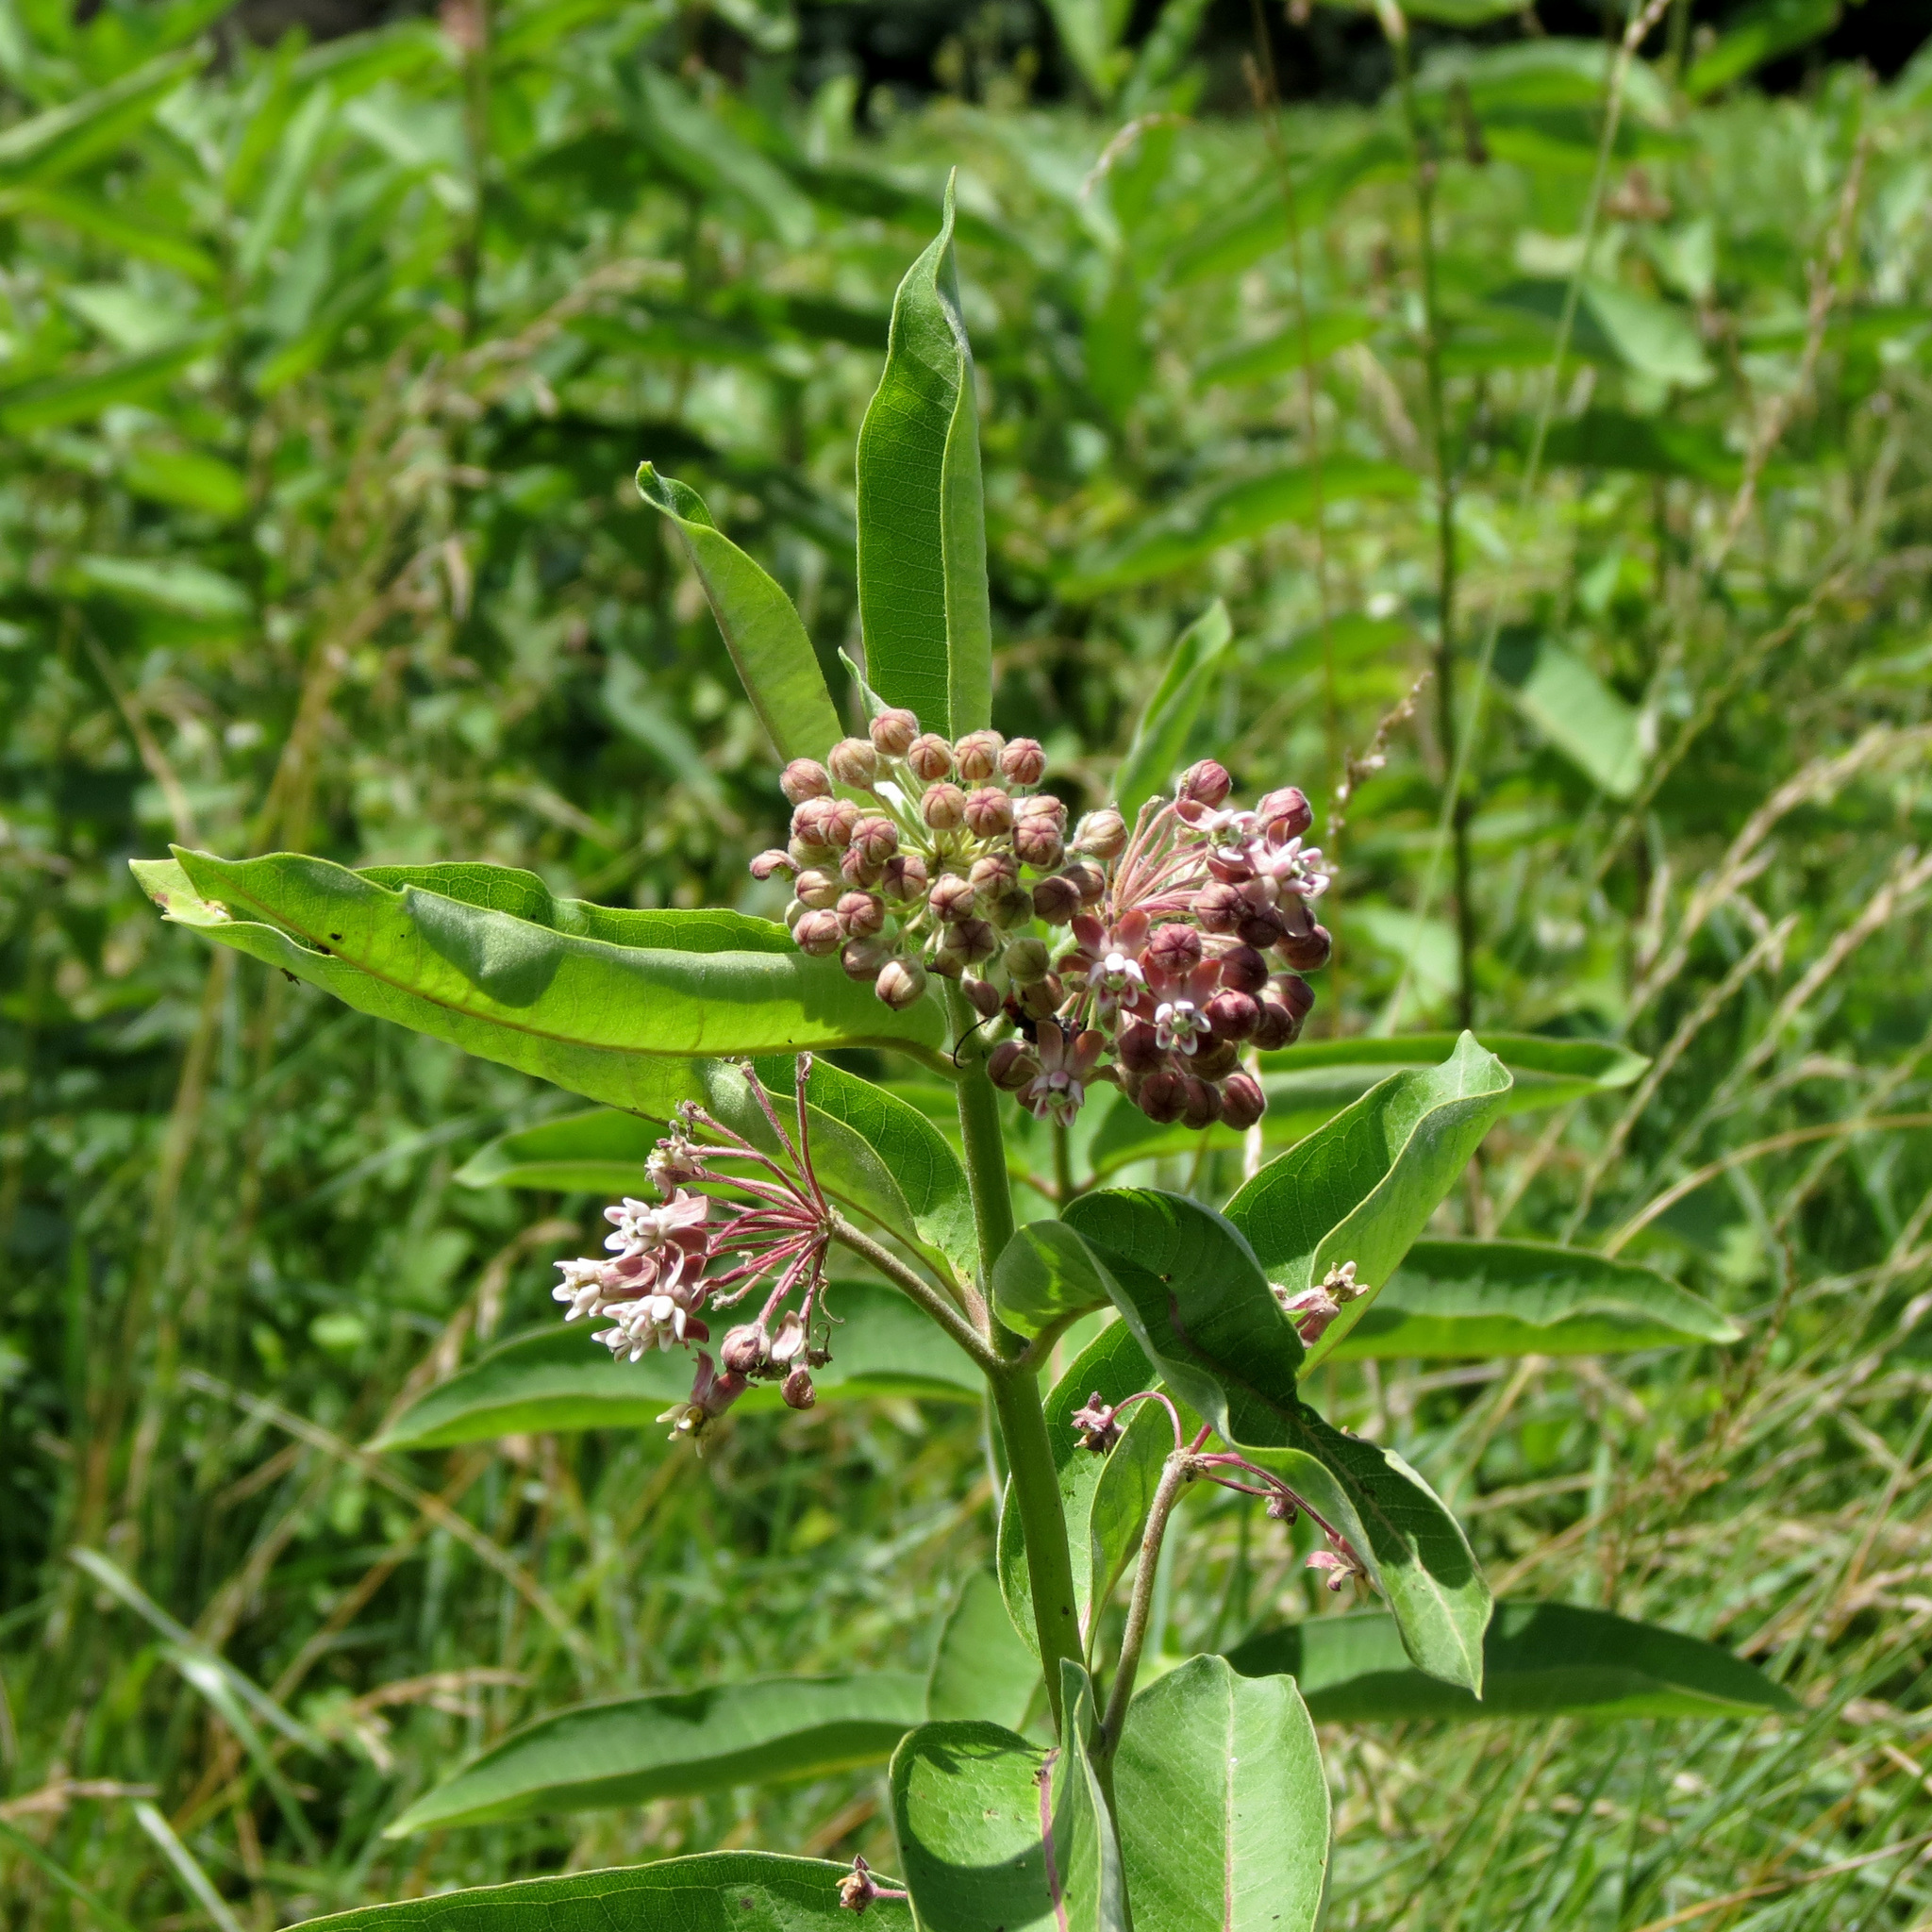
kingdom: Plantae
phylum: Tracheophyta
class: Magnoliopsida
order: Gentianales
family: Apocynaceae
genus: Asclepias
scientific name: Asclepias syriaca
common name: Common milkweed
